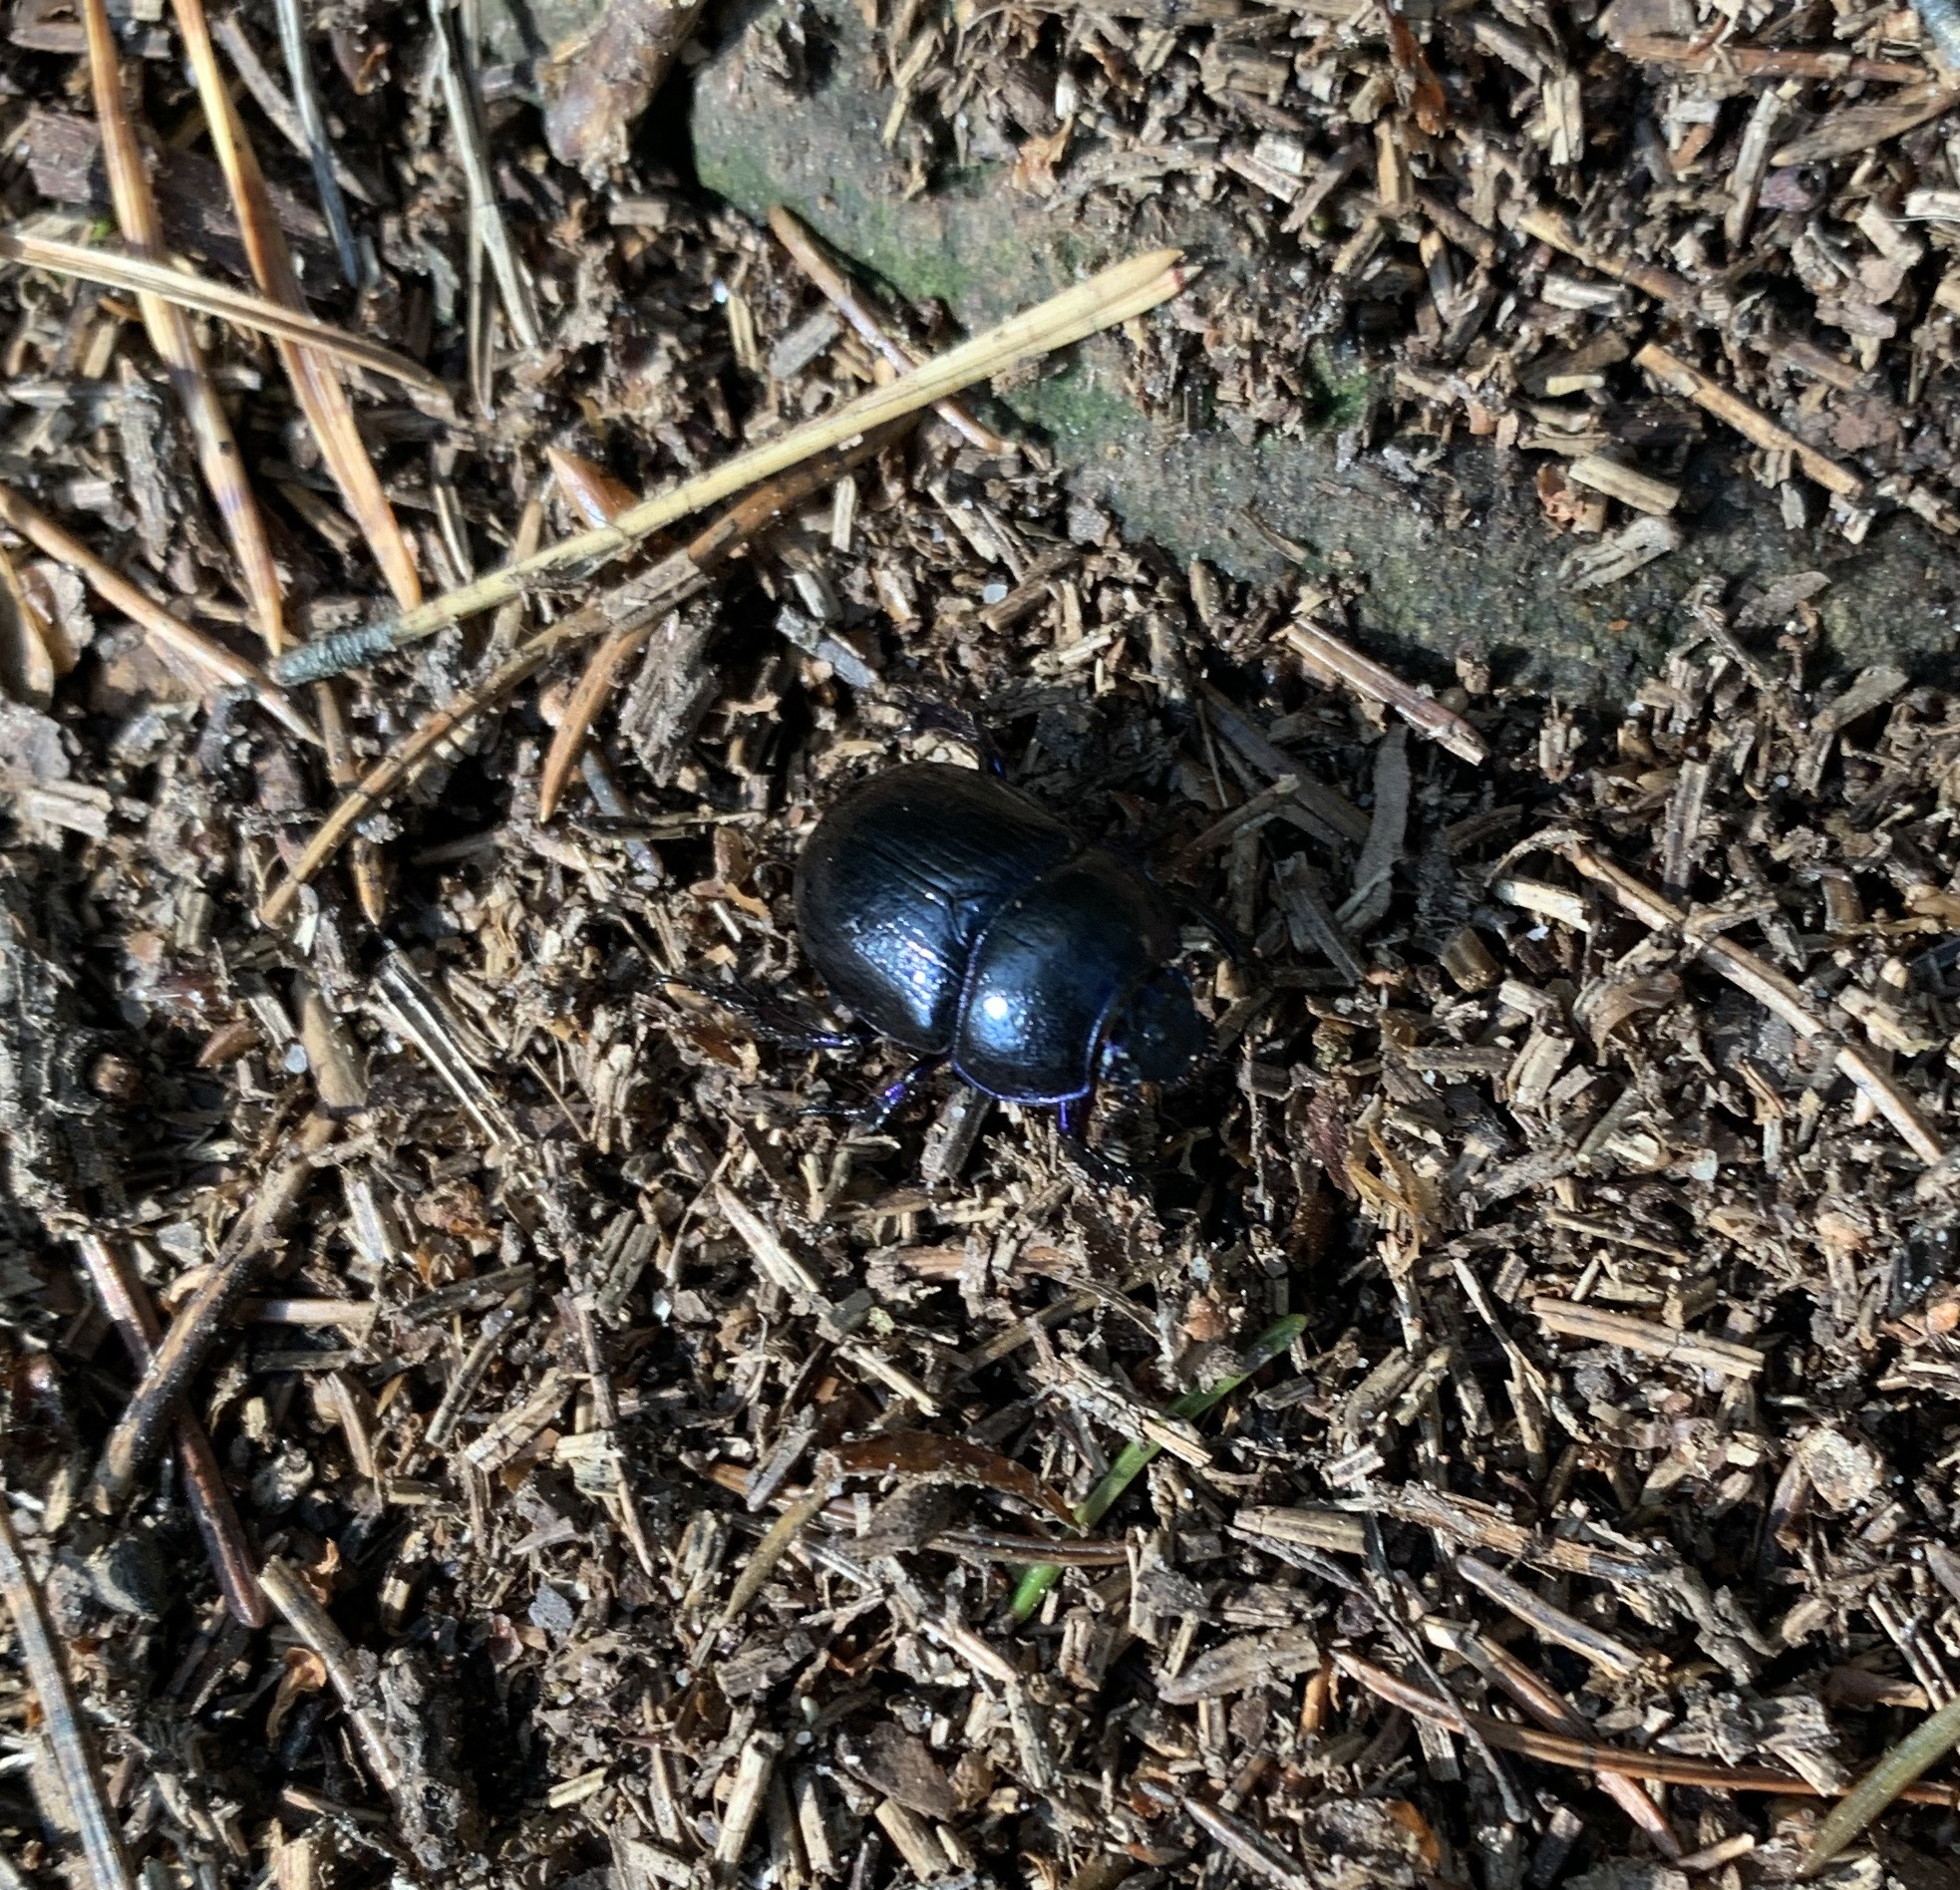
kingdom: Animalia
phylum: Arthropoda
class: Insecta
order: Coleoptera
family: Geotrupidae
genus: Anoplotrupes
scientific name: Anoplotrupes stercorosus
